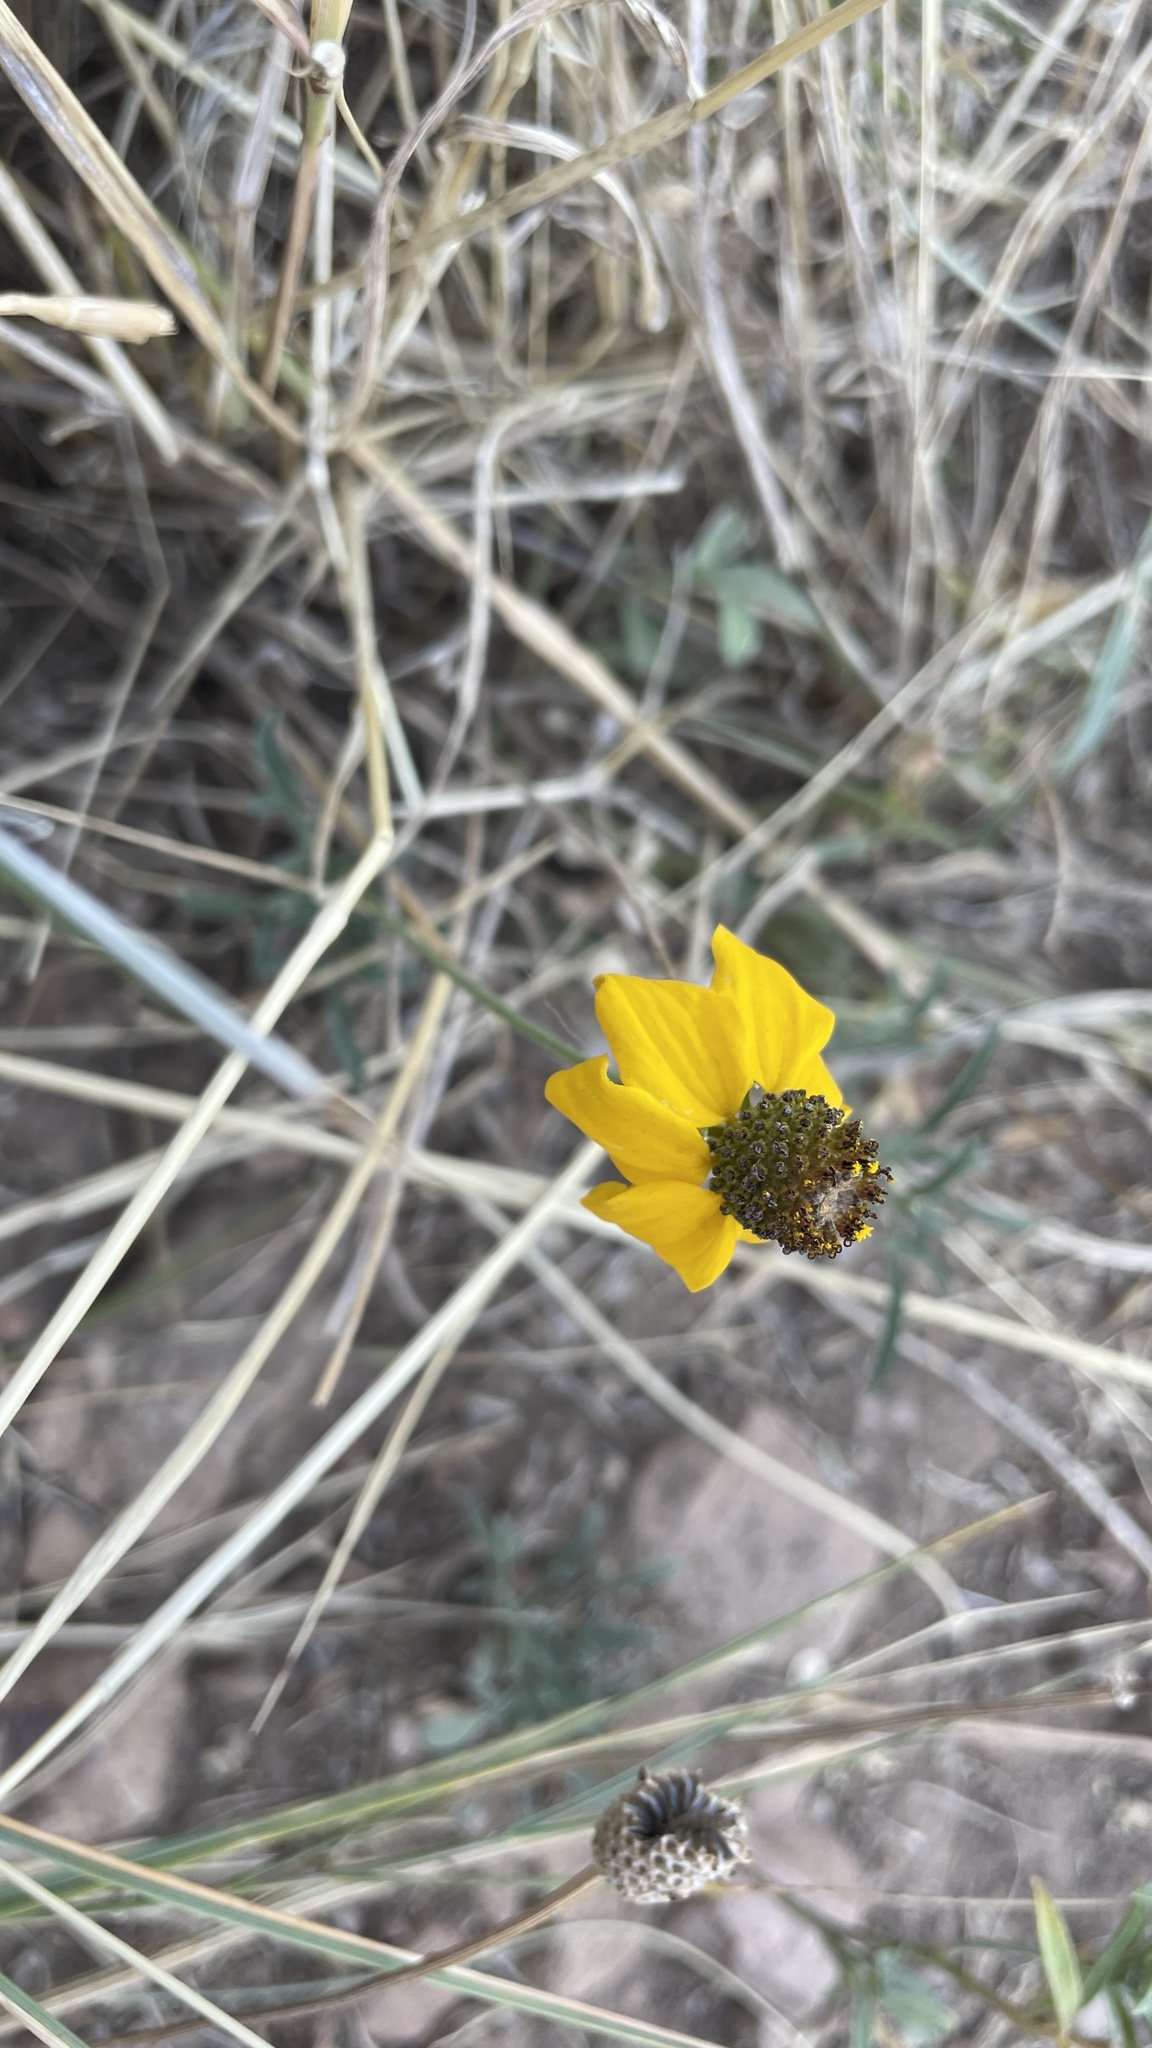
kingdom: Plantae
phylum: Tracheophyta
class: Magnoliopsida
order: Asterales
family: Asteraceae
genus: Ratibida
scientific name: Ratibida columnifera
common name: Prairie coneflower
